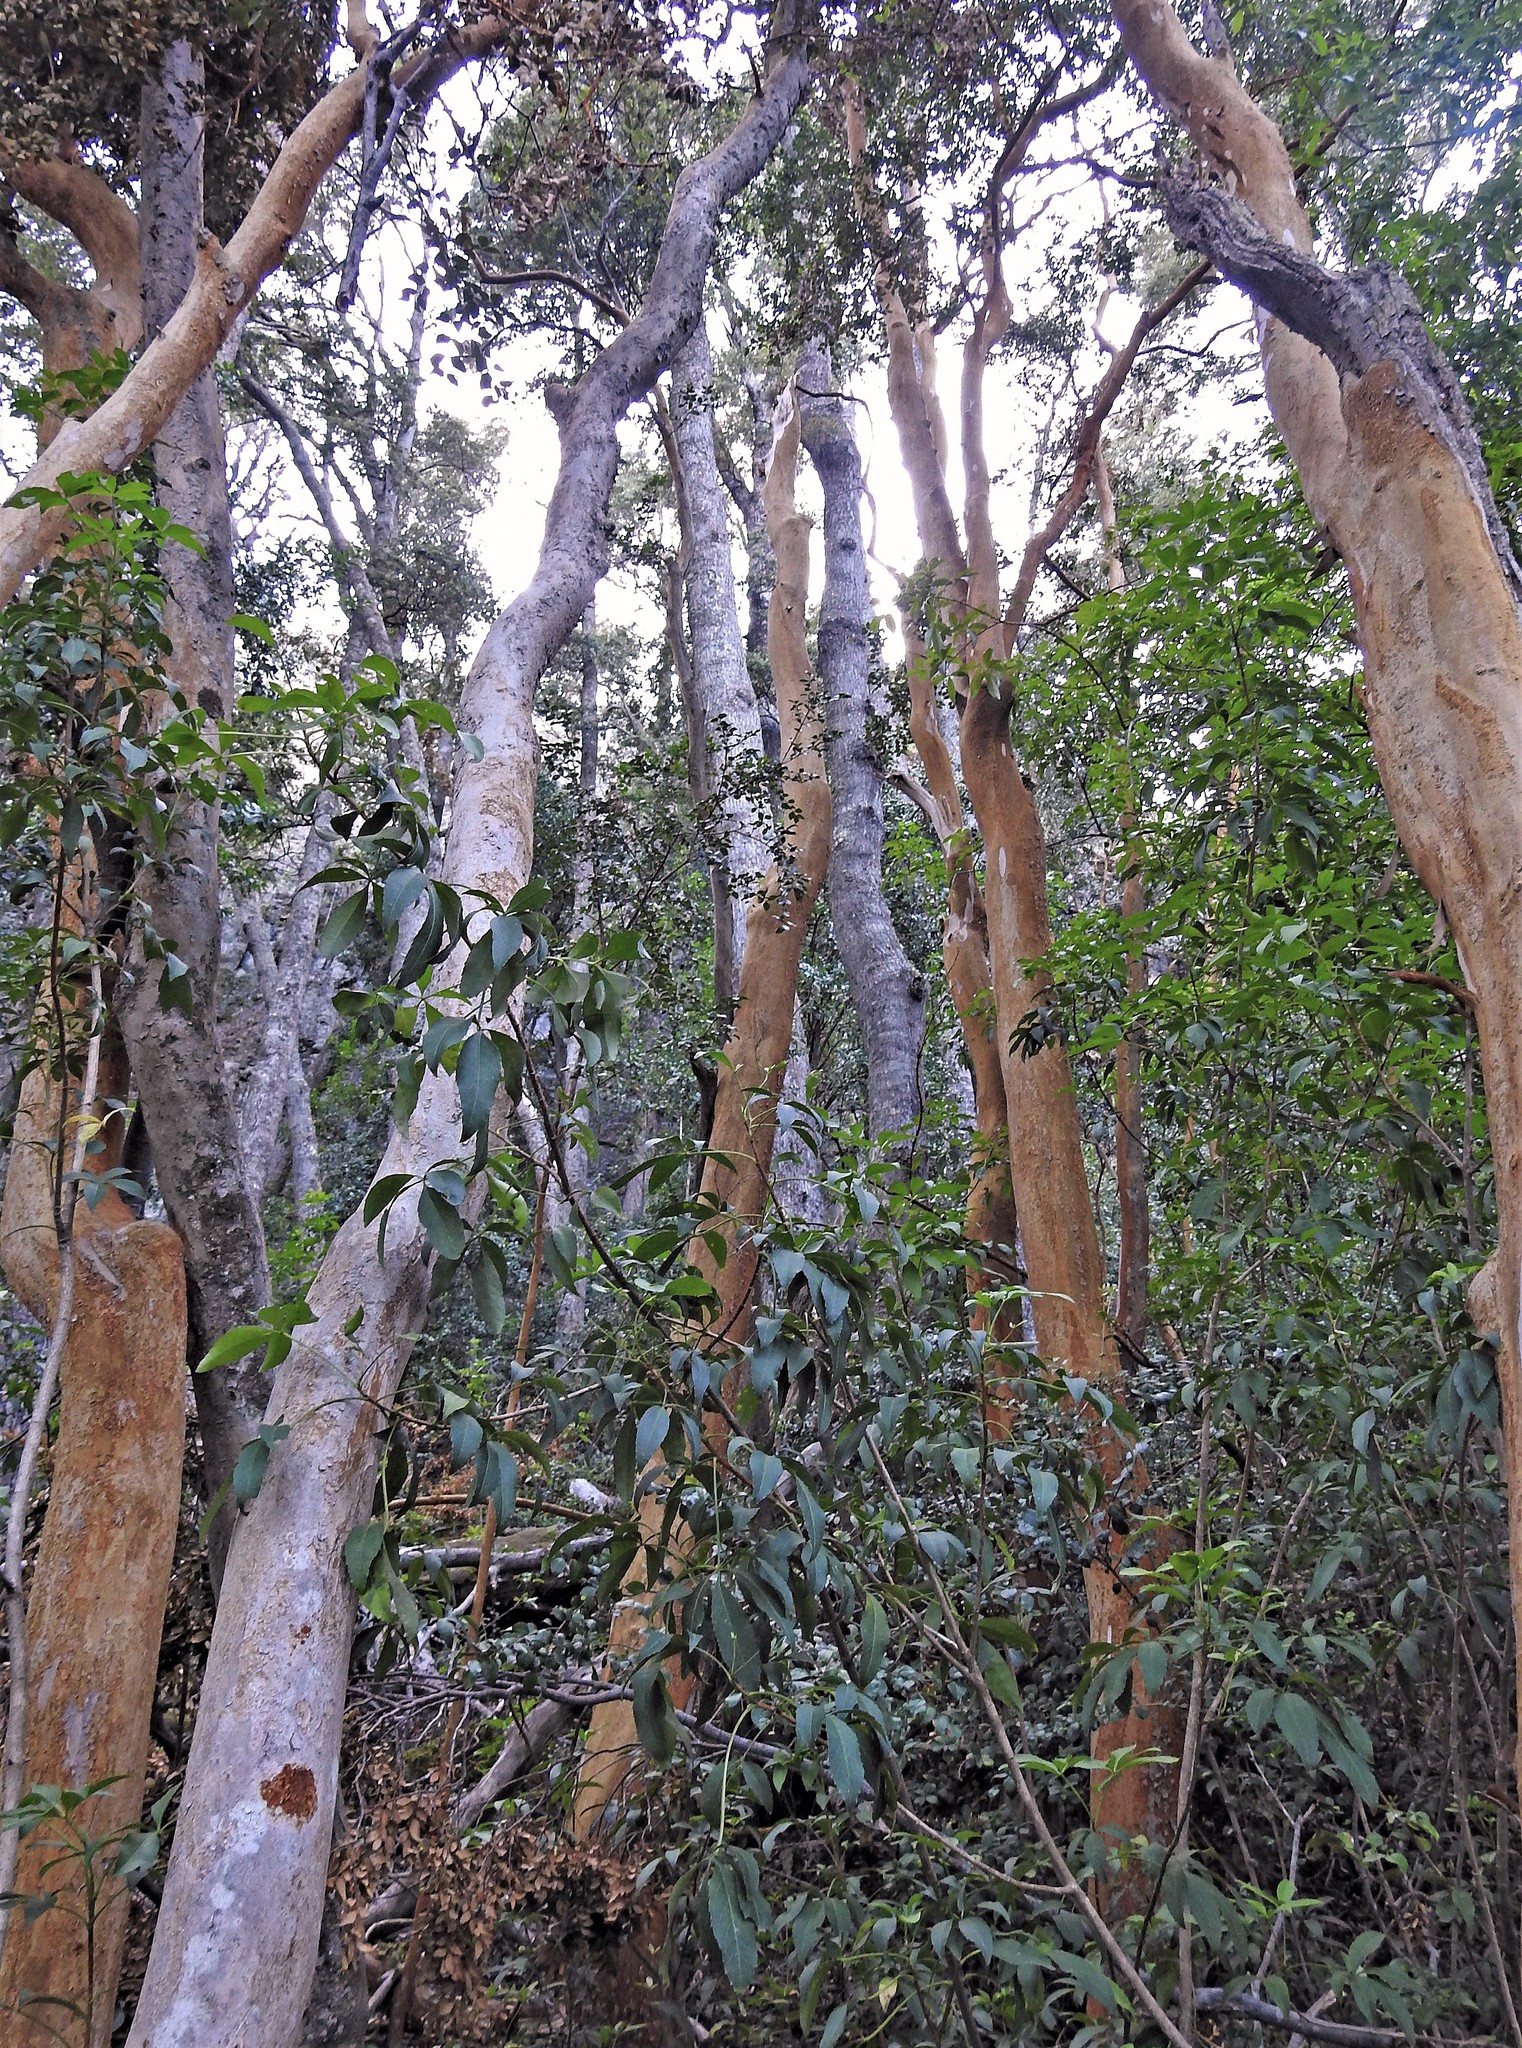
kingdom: Plantae
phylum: Tracheophyta
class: Magnoliopsida
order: Myrtales
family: Myrtaceae
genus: Luma
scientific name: Luma apiculata
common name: Chilean myrtle
